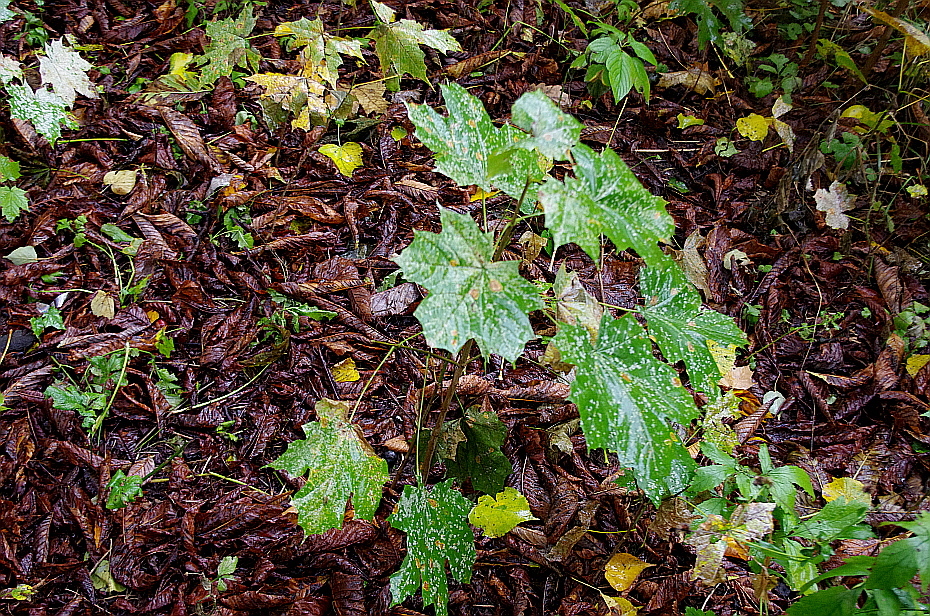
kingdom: Plantae
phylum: Tracheophyta
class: Magnoliopsida
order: Sapindales
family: Sapindaceae
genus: Acer
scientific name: Acer platanoides
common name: Norway maple
